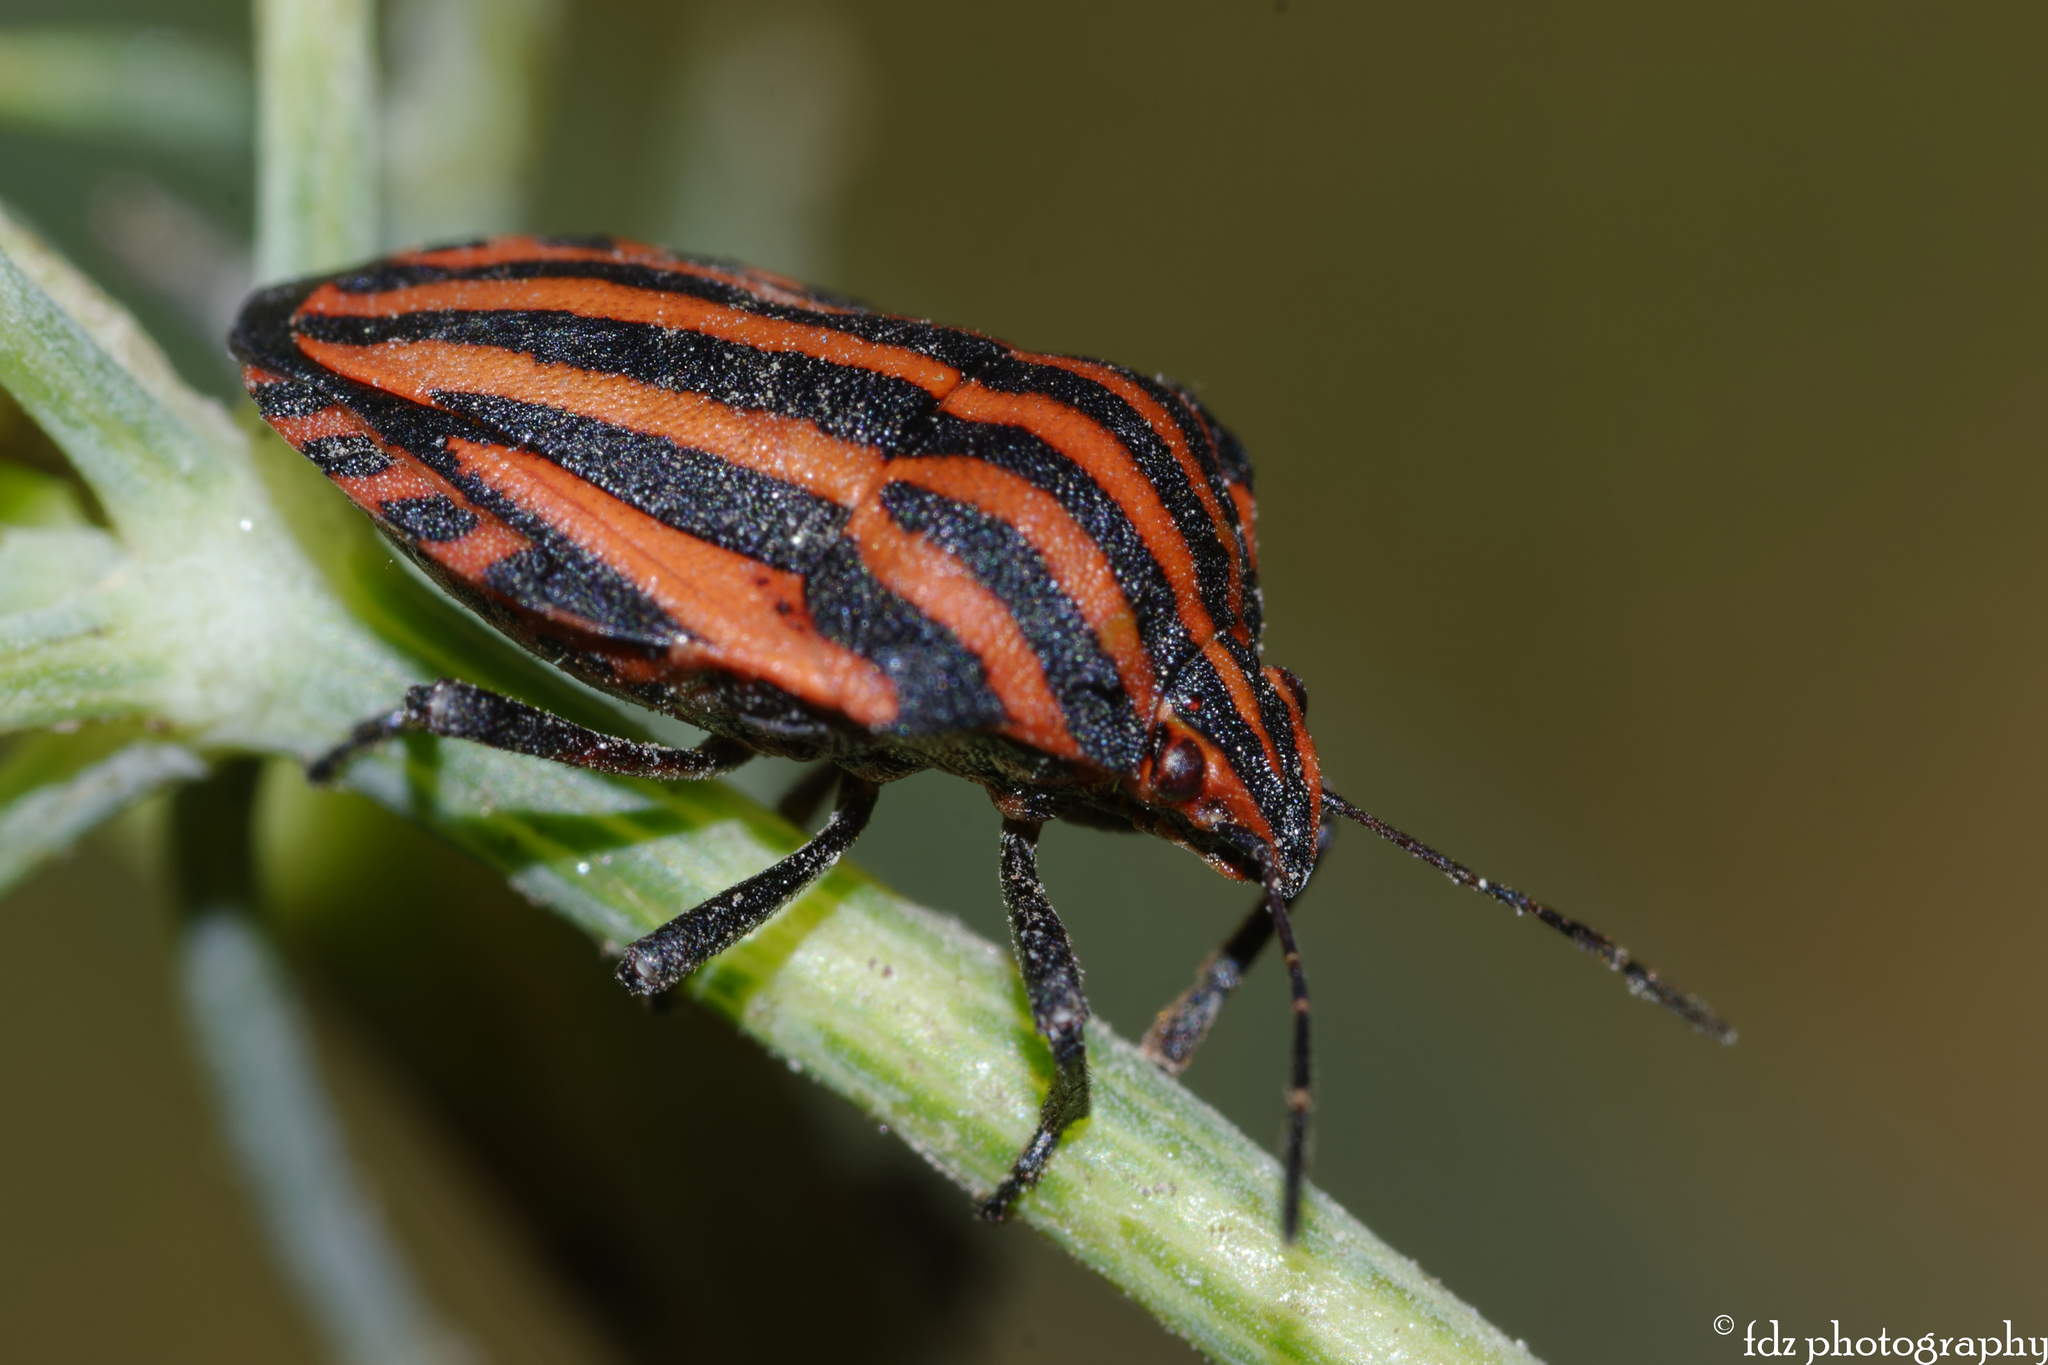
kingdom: Animalia
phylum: Arthropoda
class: Insecta
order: Hemiptera
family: Pentatomidae
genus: Graphosoma
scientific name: Graphosoma italicum
